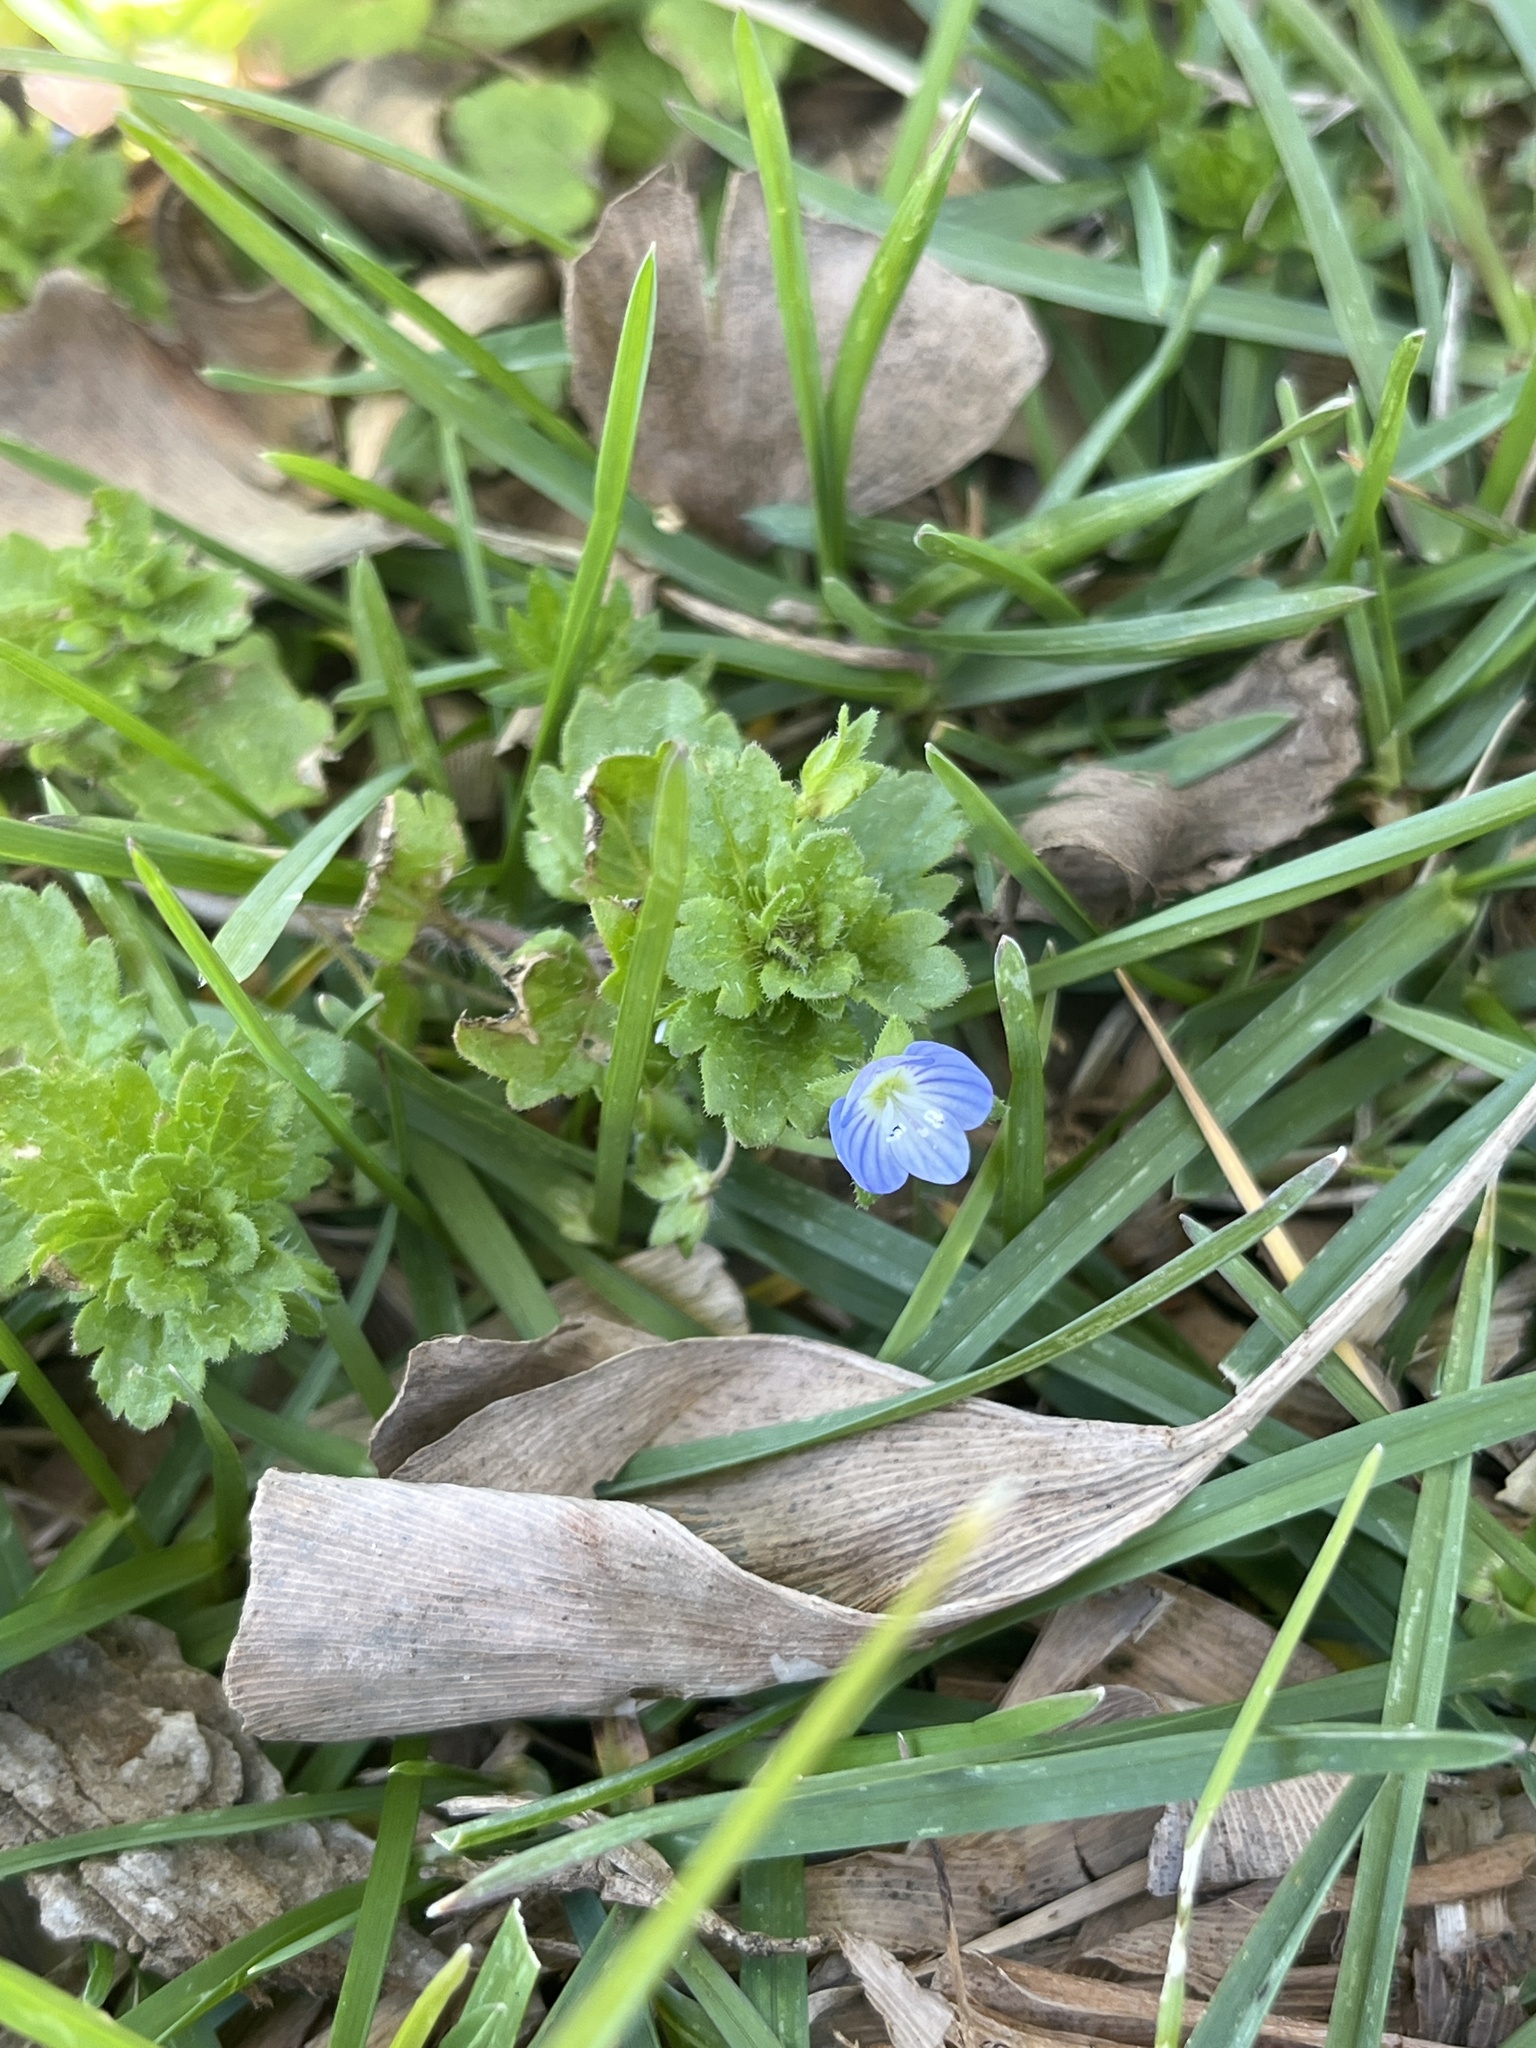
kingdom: Plantae
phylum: Tracheophyta
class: Magnoliopsida
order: Lamiales
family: Plantaginaceae
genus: Veronica
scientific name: Veronica persica
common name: Common field-speedwell
